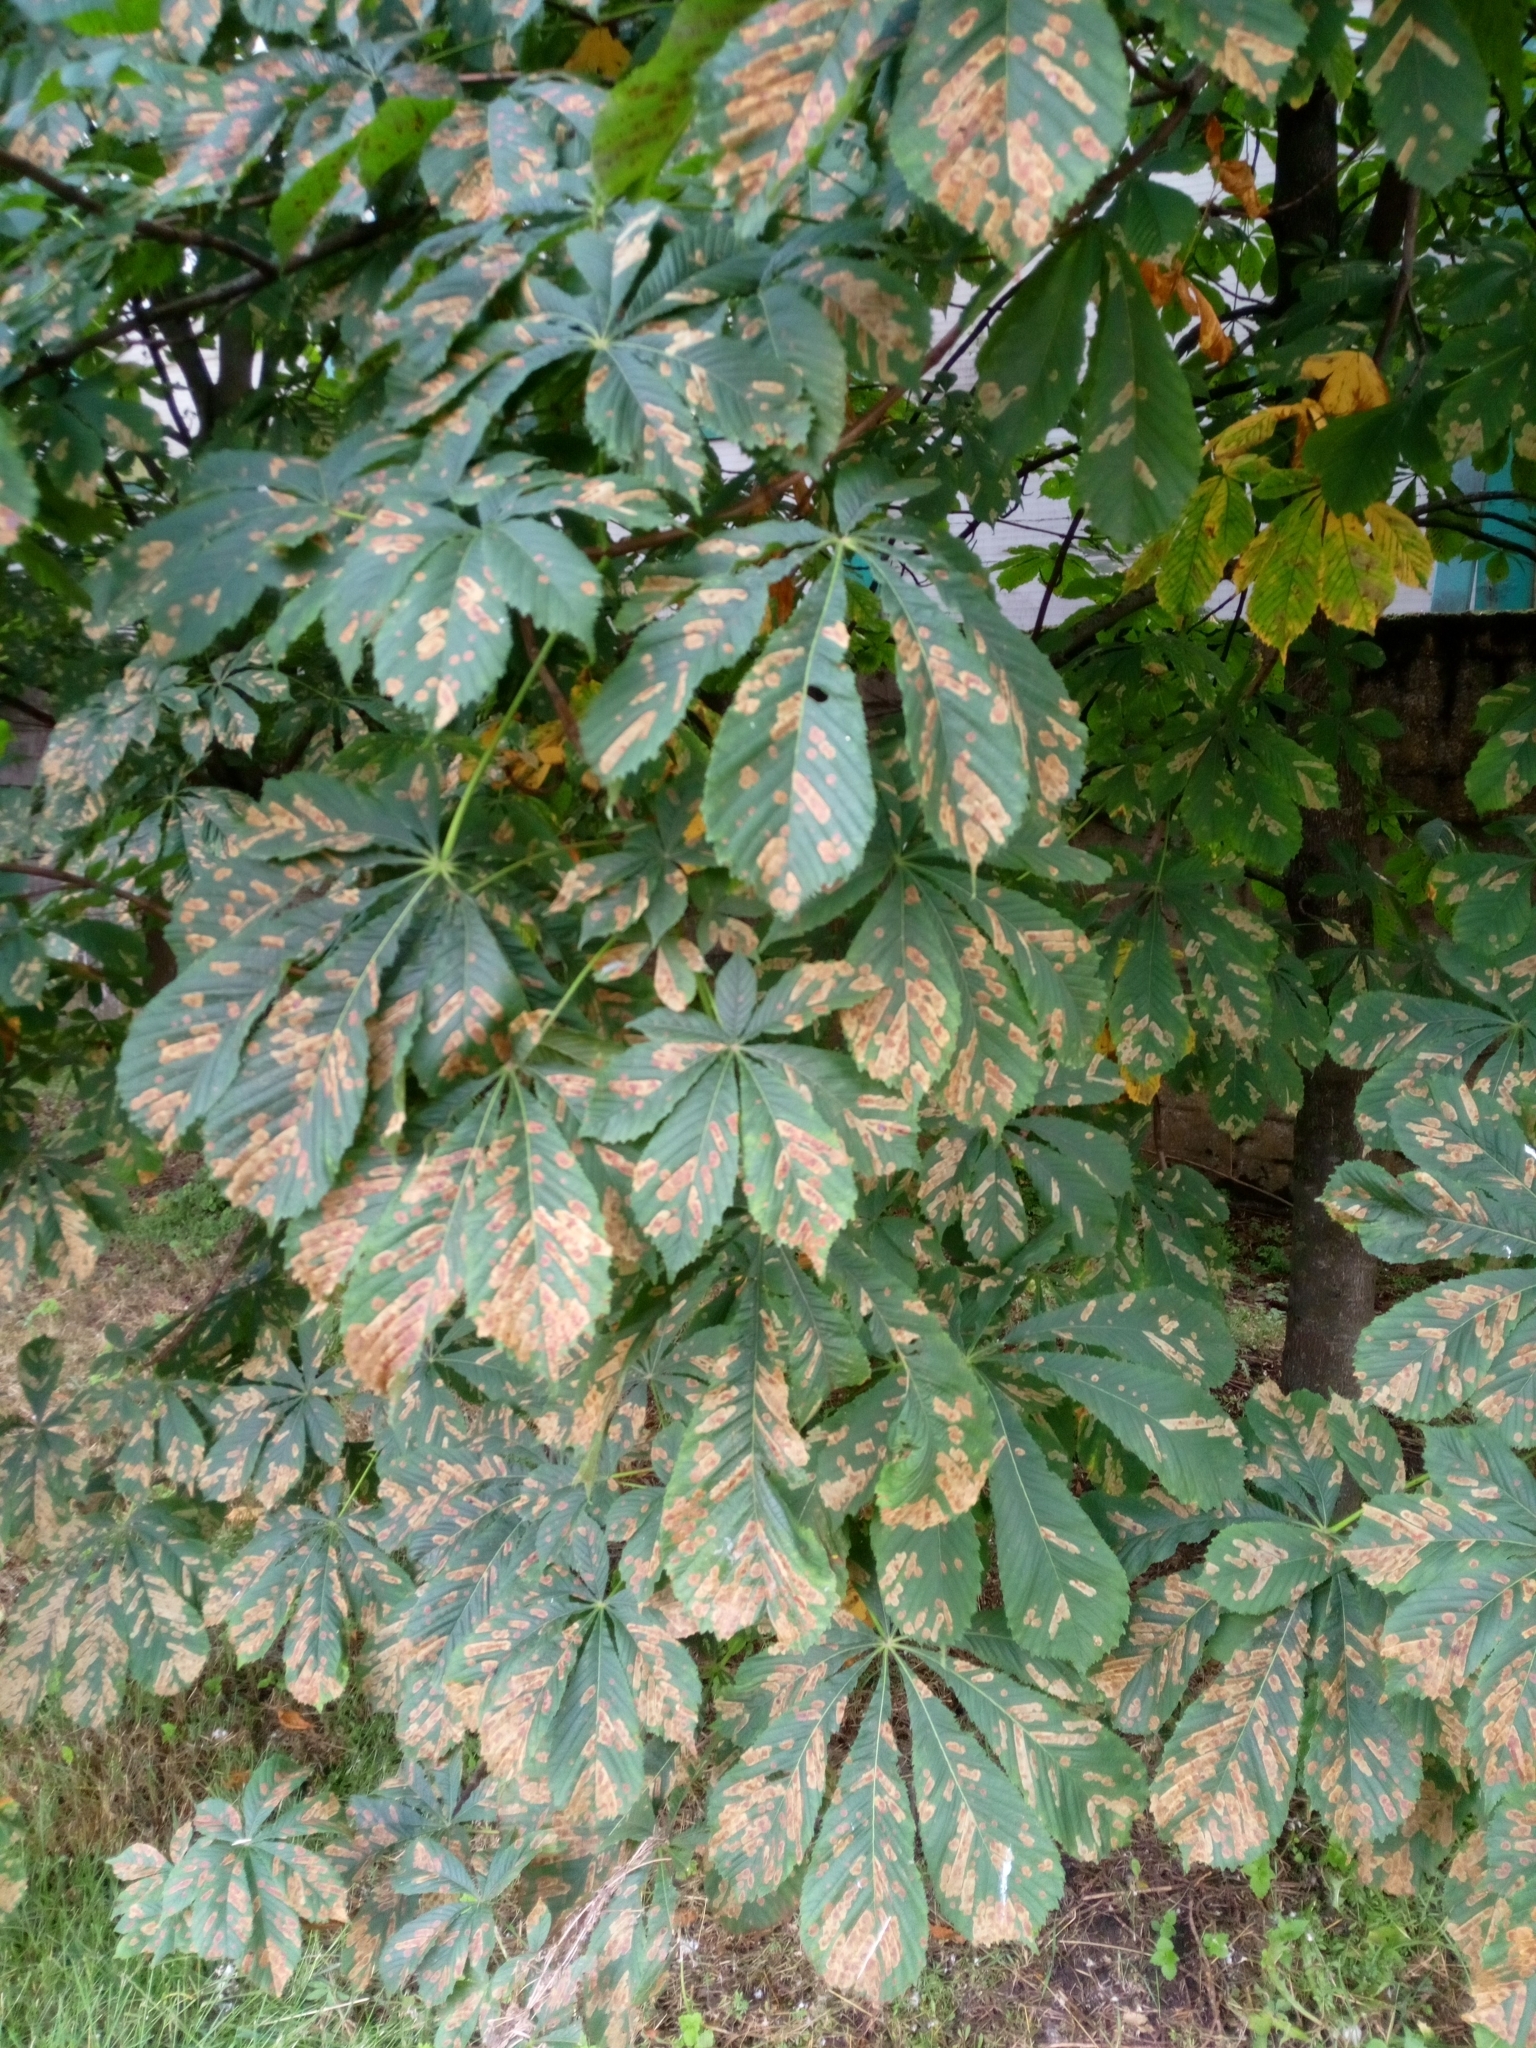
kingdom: Animalia
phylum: Arthropoda
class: Insecta
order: Lepidoptera
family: Gracillariidae
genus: Cameraria
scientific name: Cameraria ohridella
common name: Horse-chestnut leaf-miner
